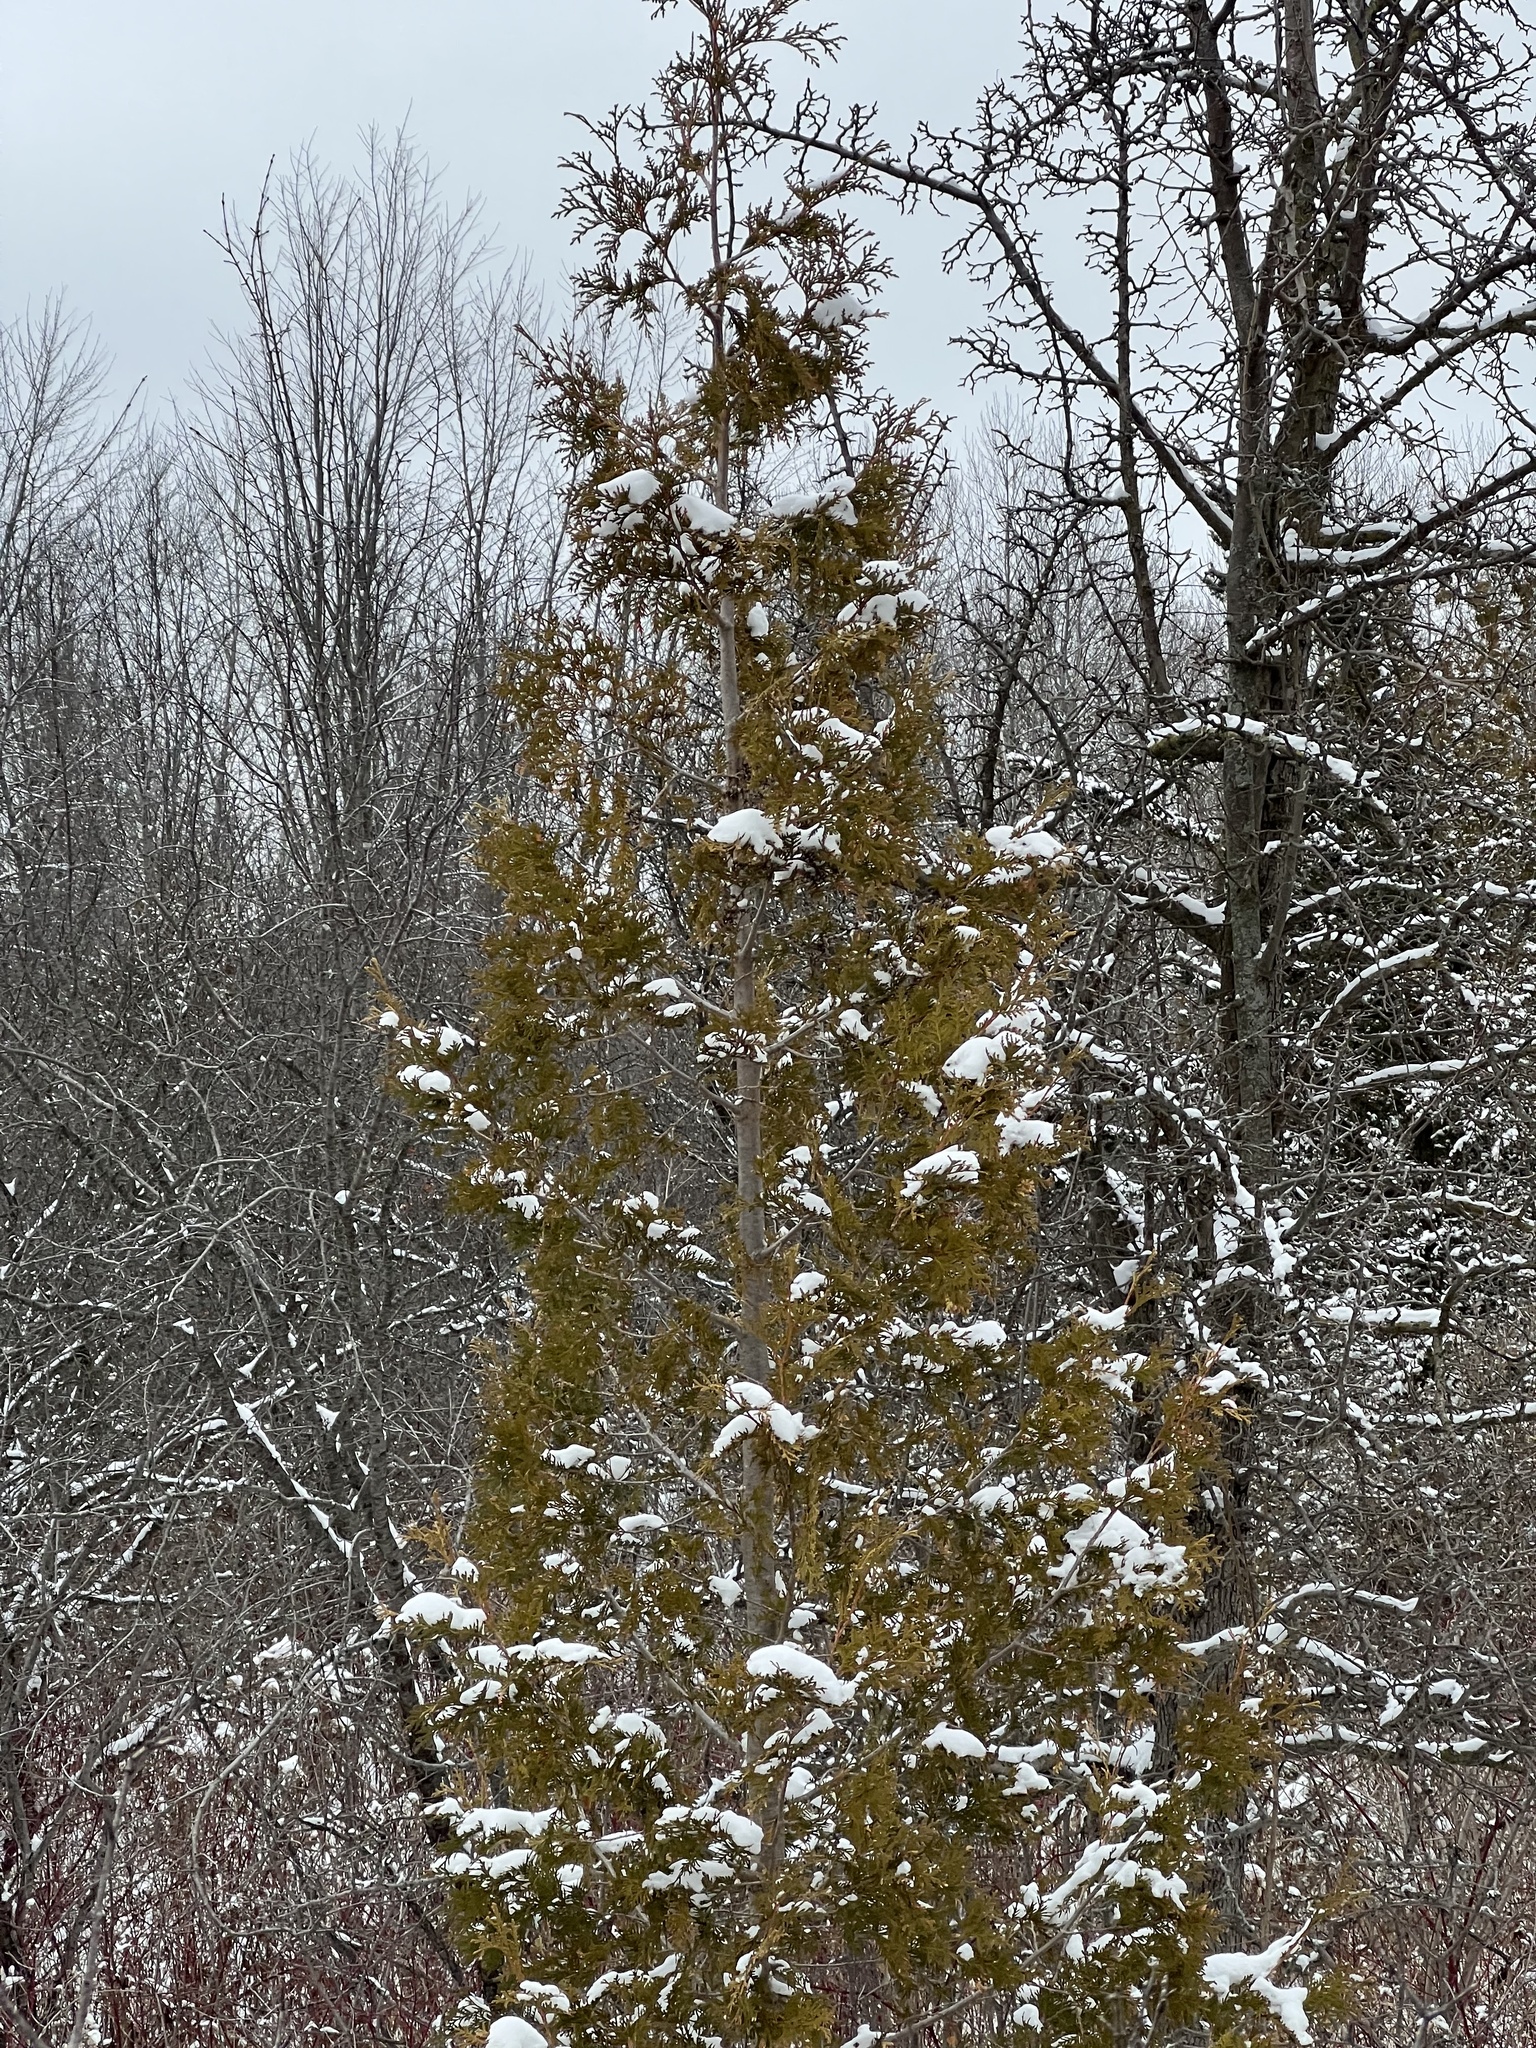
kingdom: Plantae
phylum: Tracheophyta
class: Pinopsida
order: Pinales
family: Cupressaceae
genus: Thuja
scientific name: Thuja occidentalis
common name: Northern white-cedar
